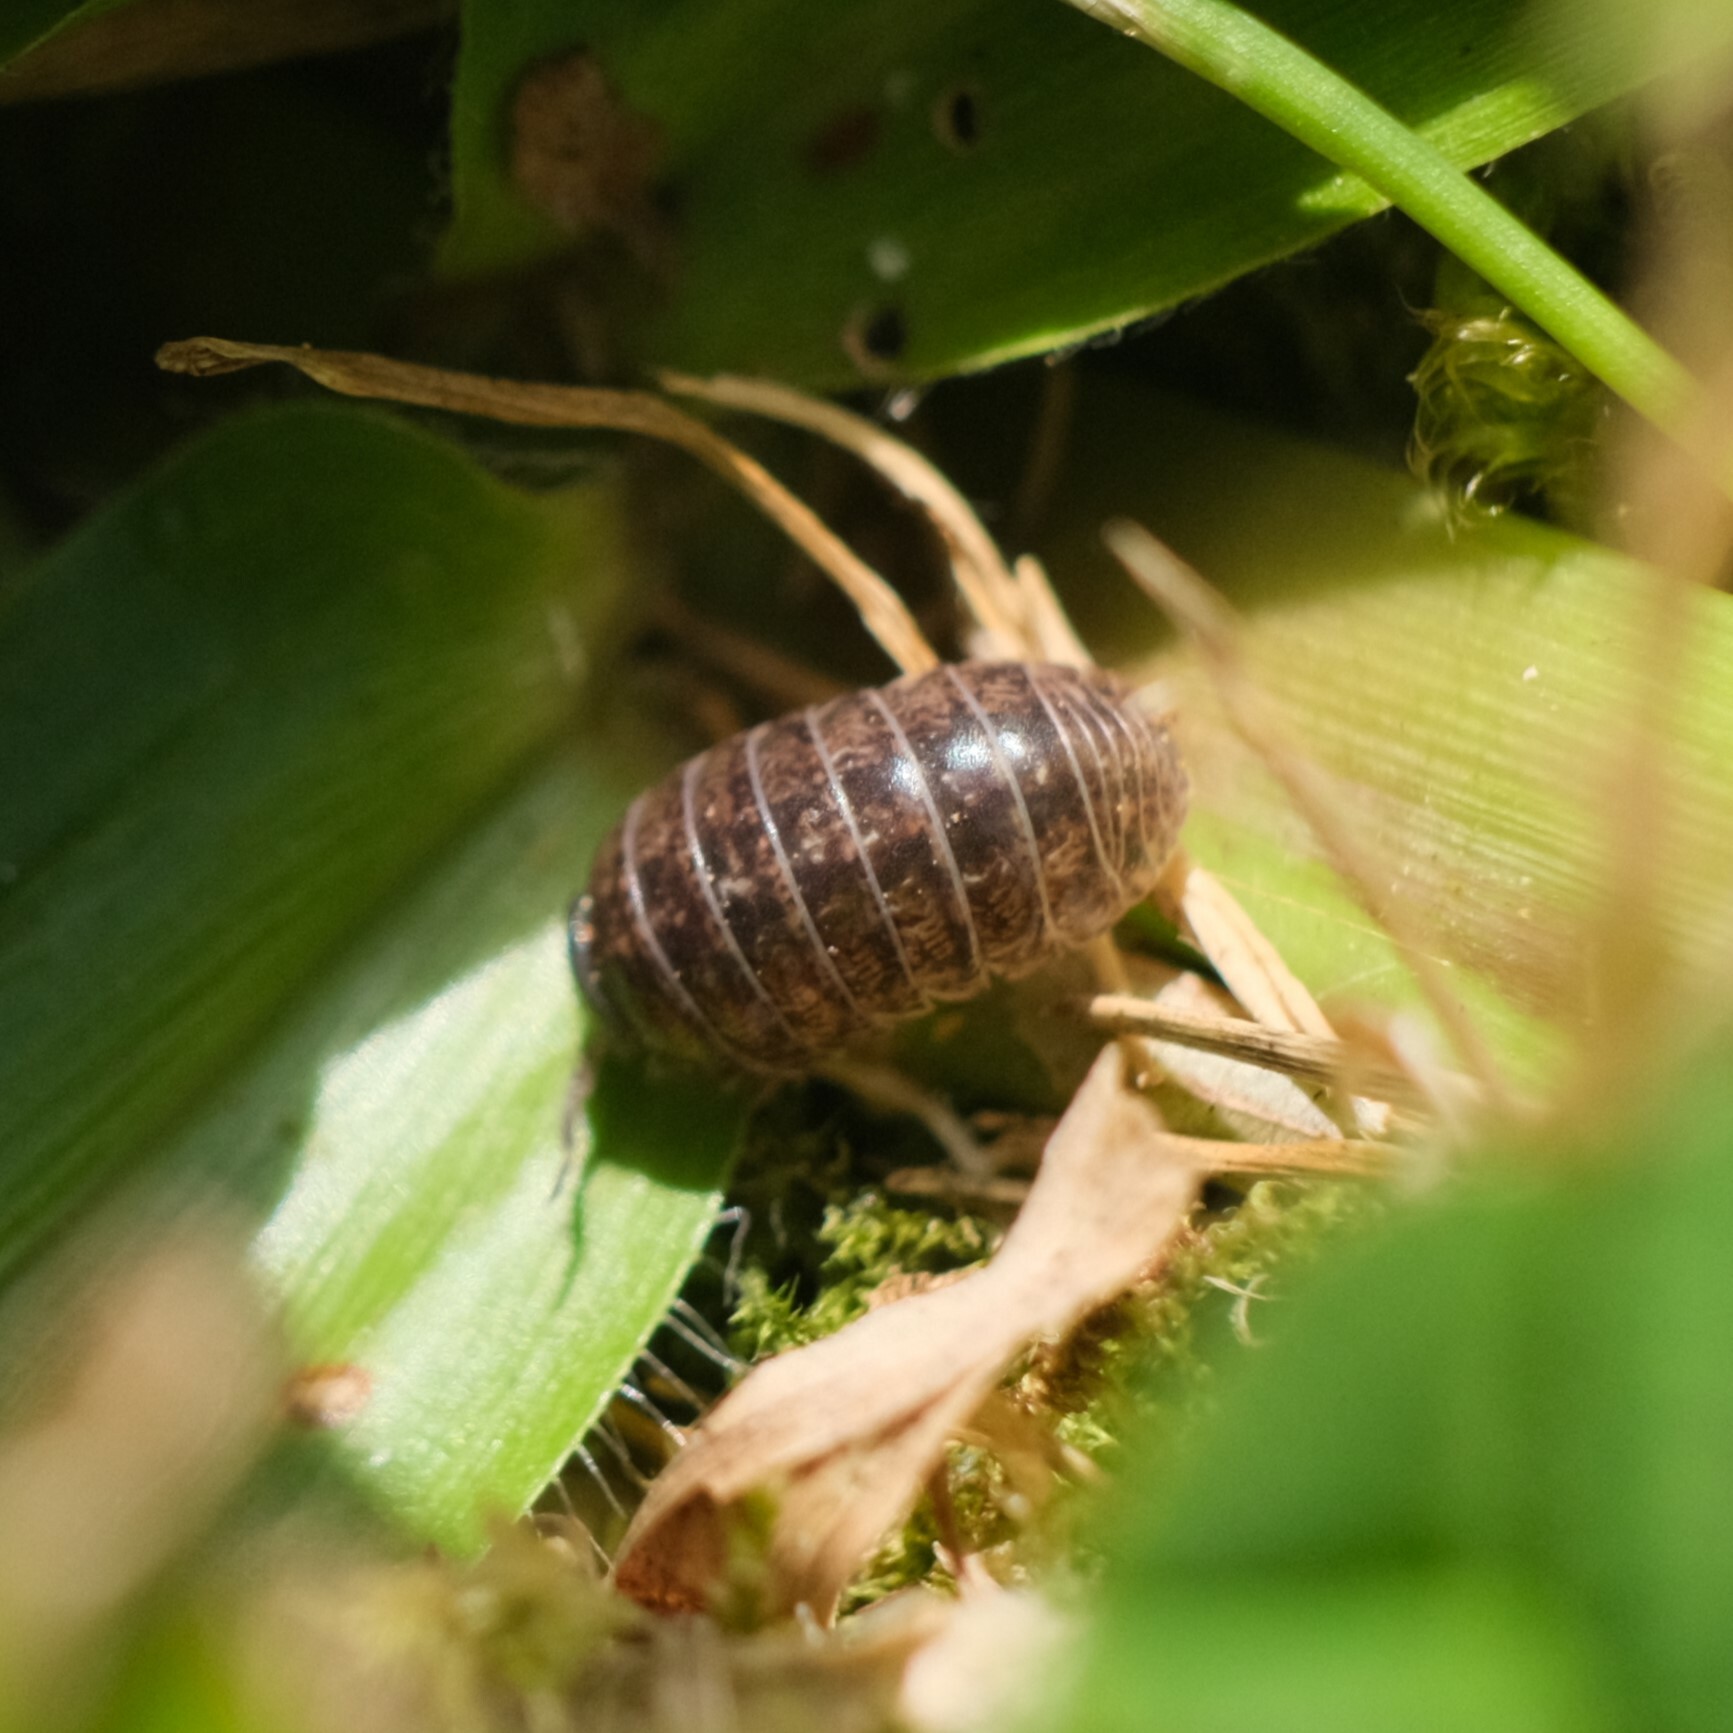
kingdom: Animalia
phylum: Arthropoda
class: Malacostraca
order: Isopoda
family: Armadillidiidae
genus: Armadillidium
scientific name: Armadillidium vulgare
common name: Common pill woodlouse
